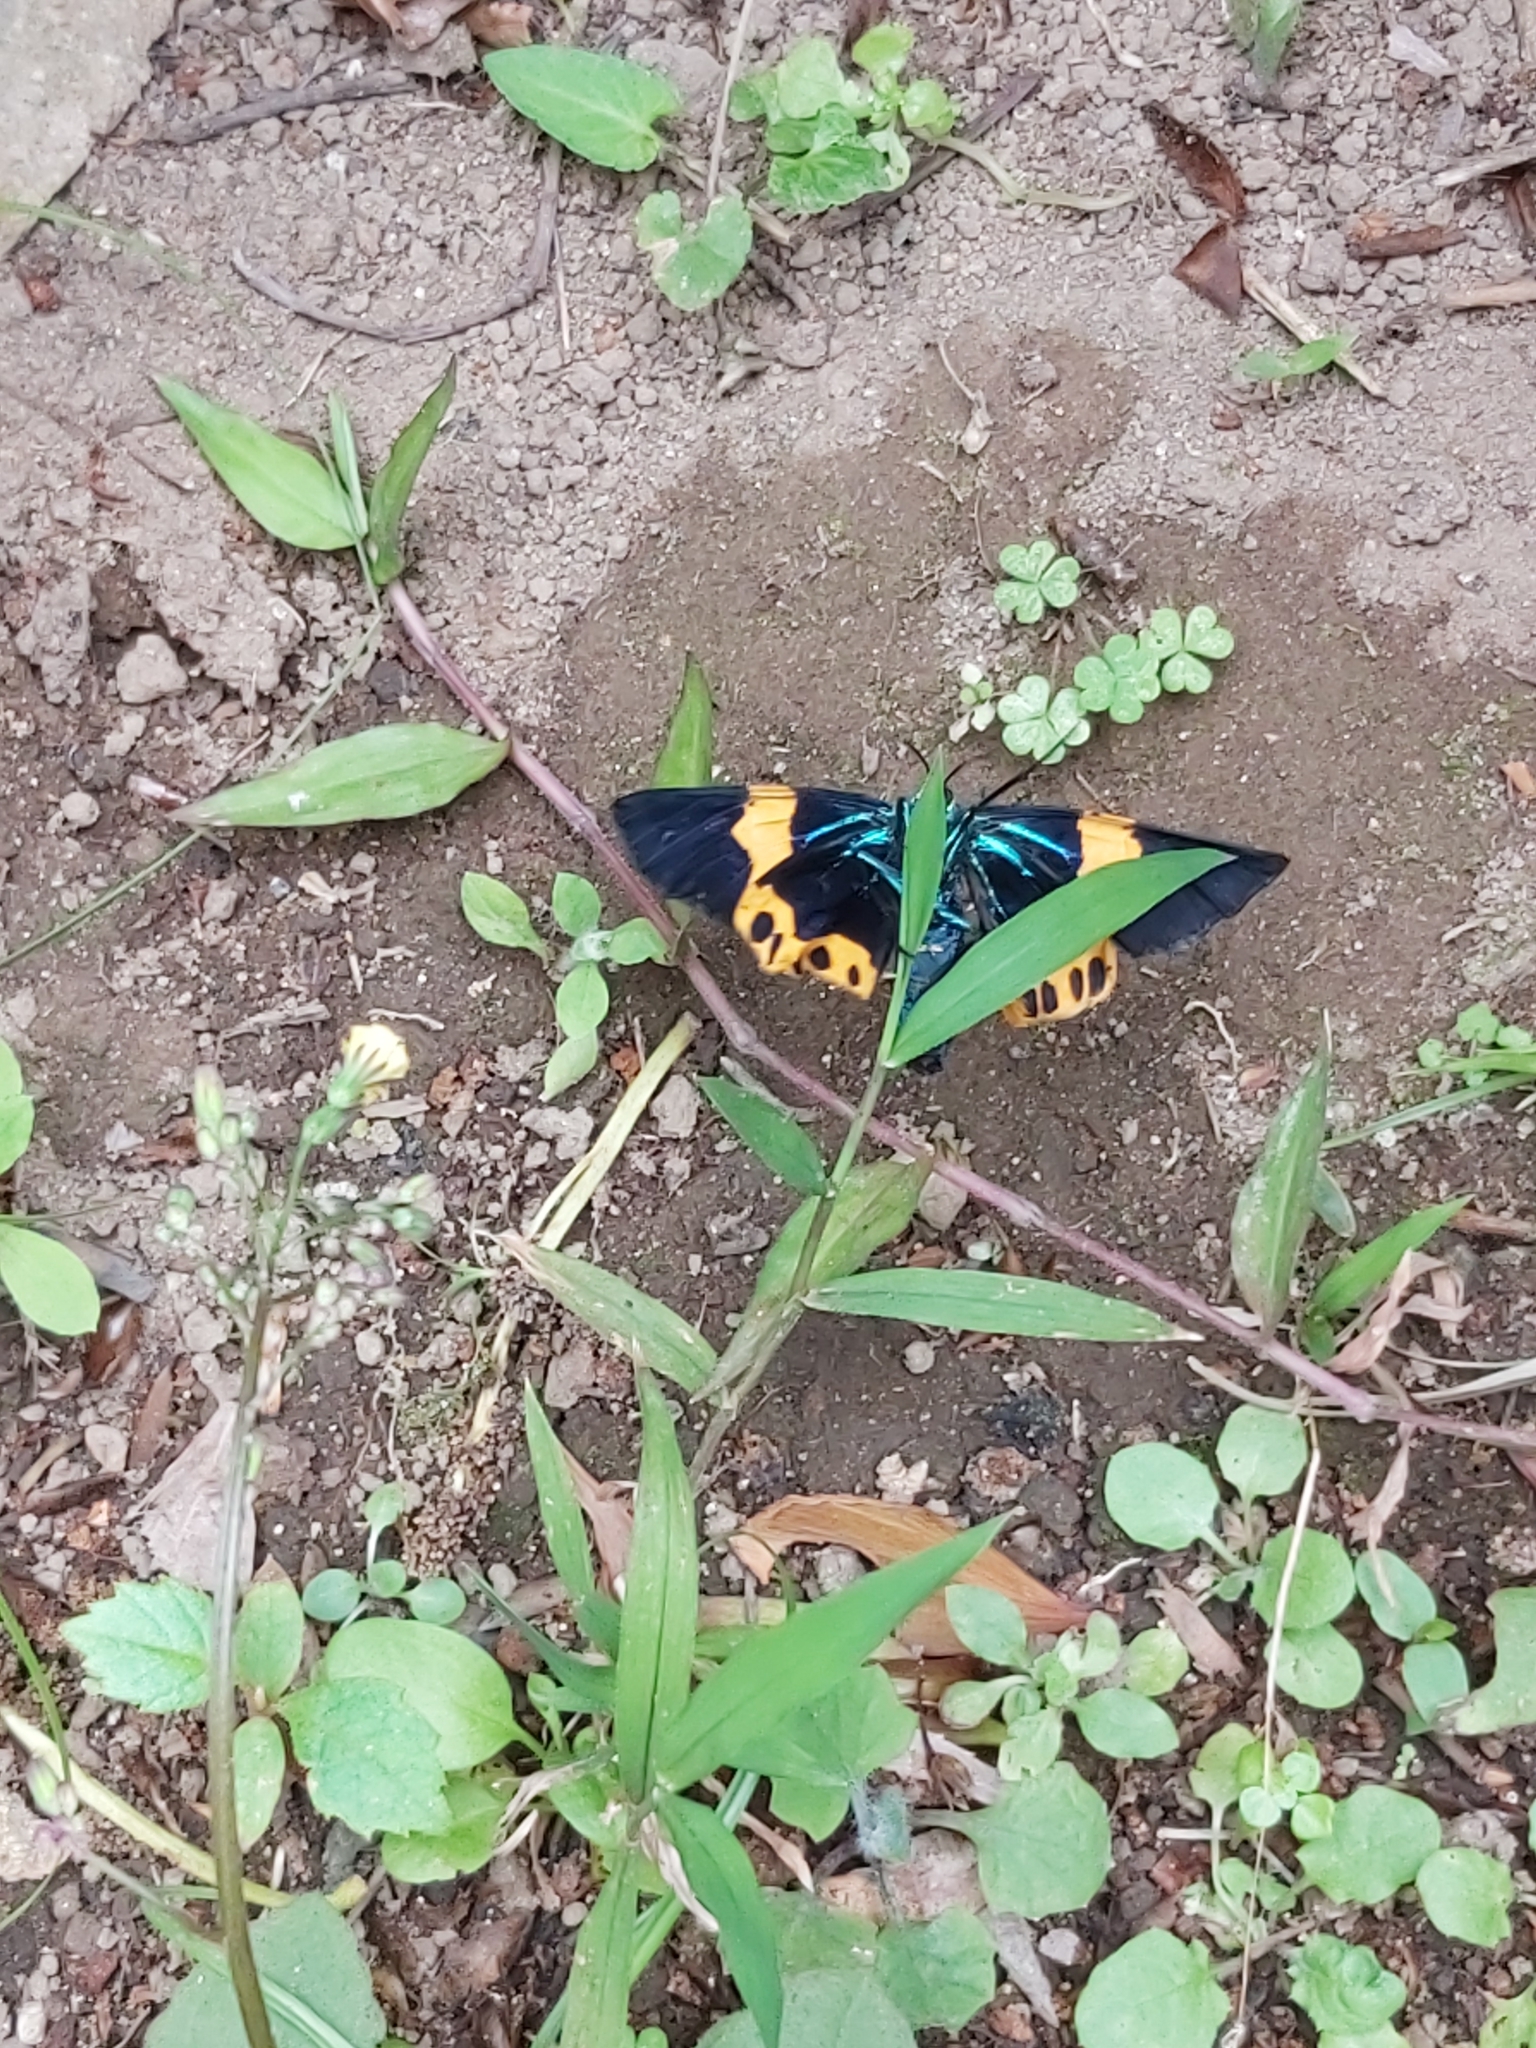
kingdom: Animalia
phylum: Arthropoda
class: Insecta
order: Lepidoptera
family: Geometridae
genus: Milionia
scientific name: Milionia basalis
